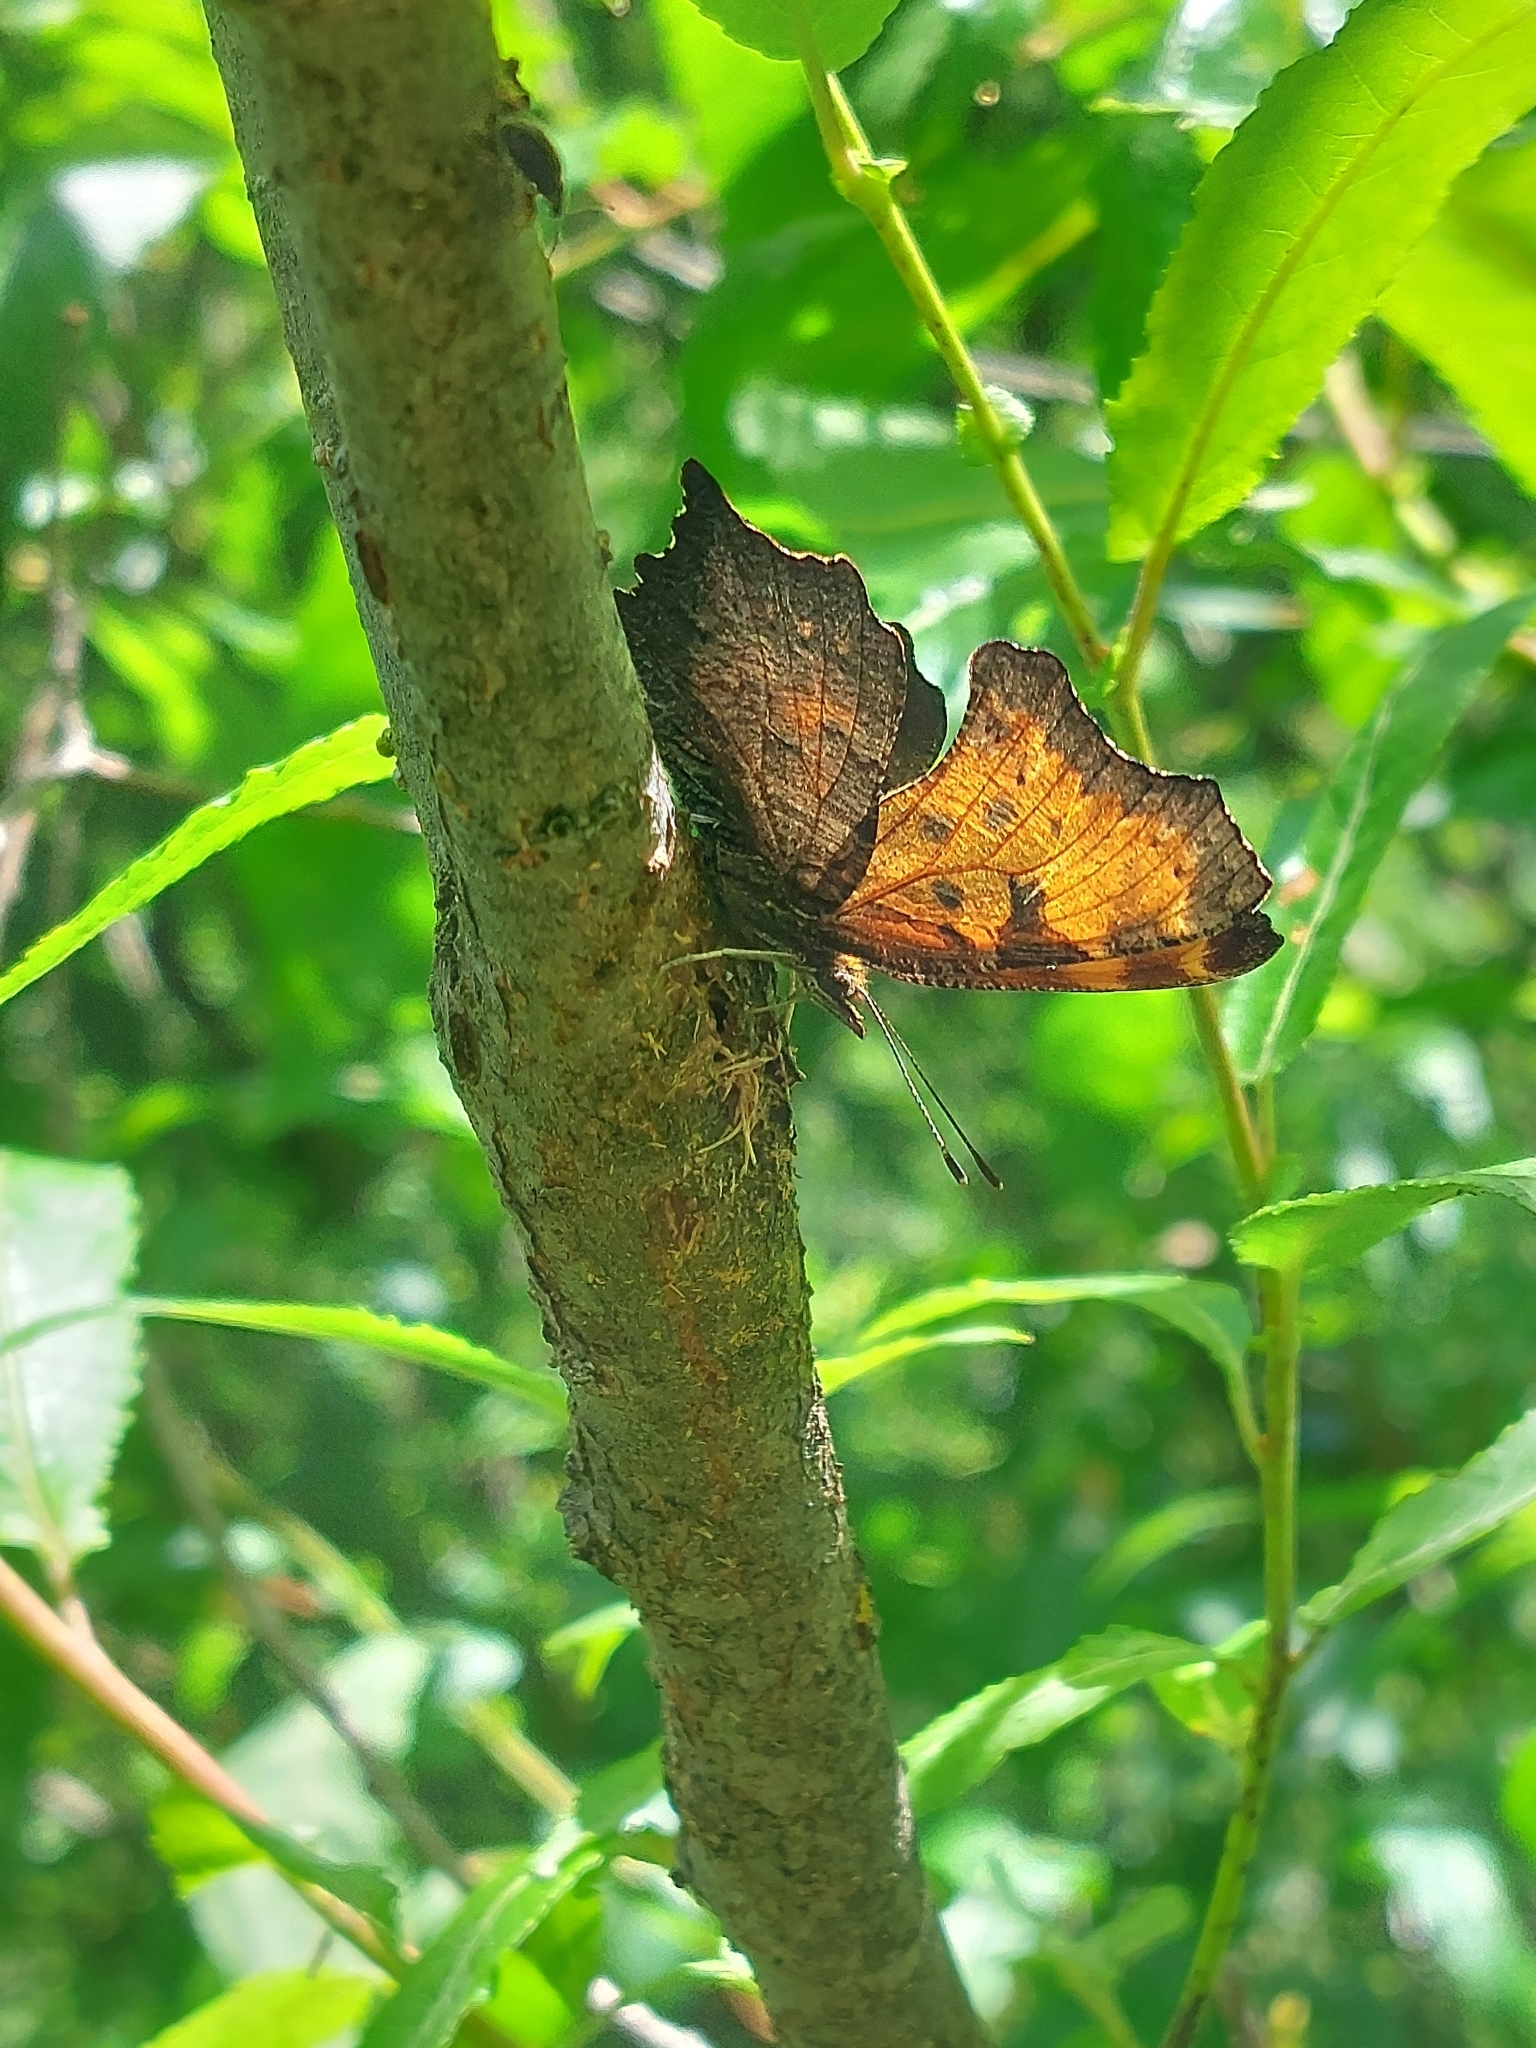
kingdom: Animalia
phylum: Arthropoda
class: Insecta
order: Lepidoptera
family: Nymphalidae
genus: Polygonia
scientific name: Polygonia progne
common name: Gray comma
